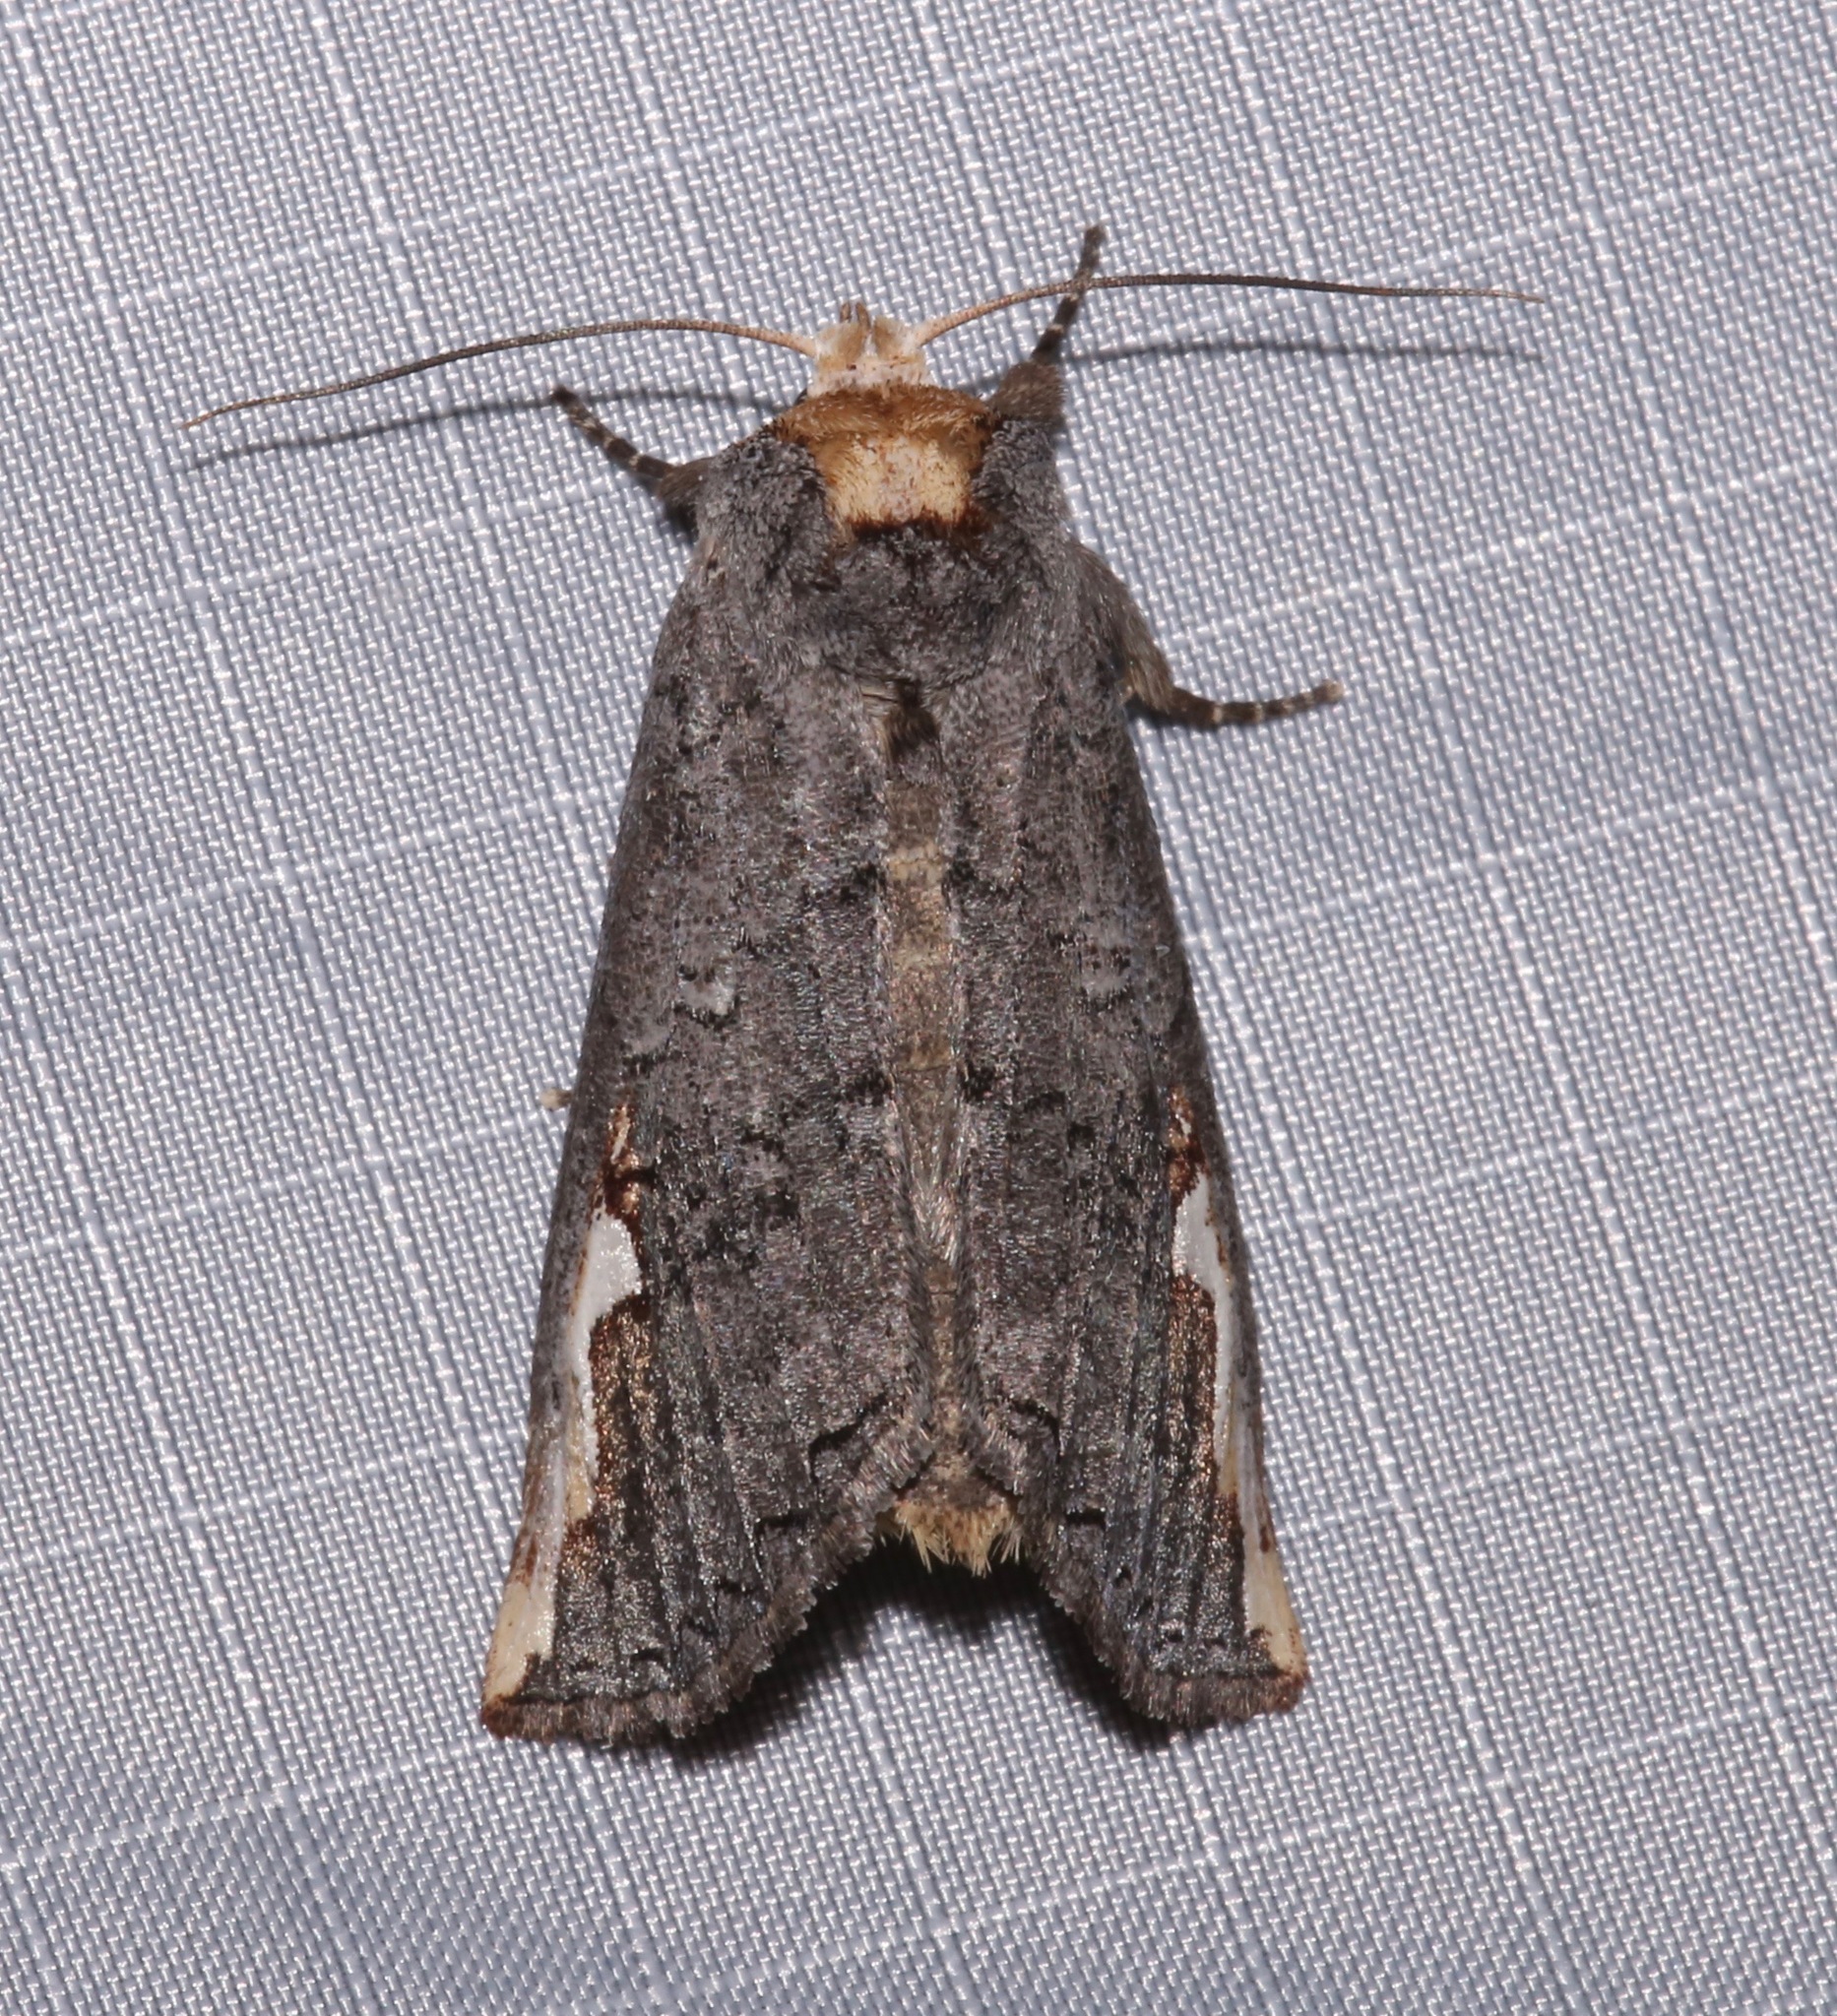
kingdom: Animalia
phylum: Arthropoda
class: Insecta
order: Lepidoptera
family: Notodontidae
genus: Symmerista
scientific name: Symmerista zacualpana
